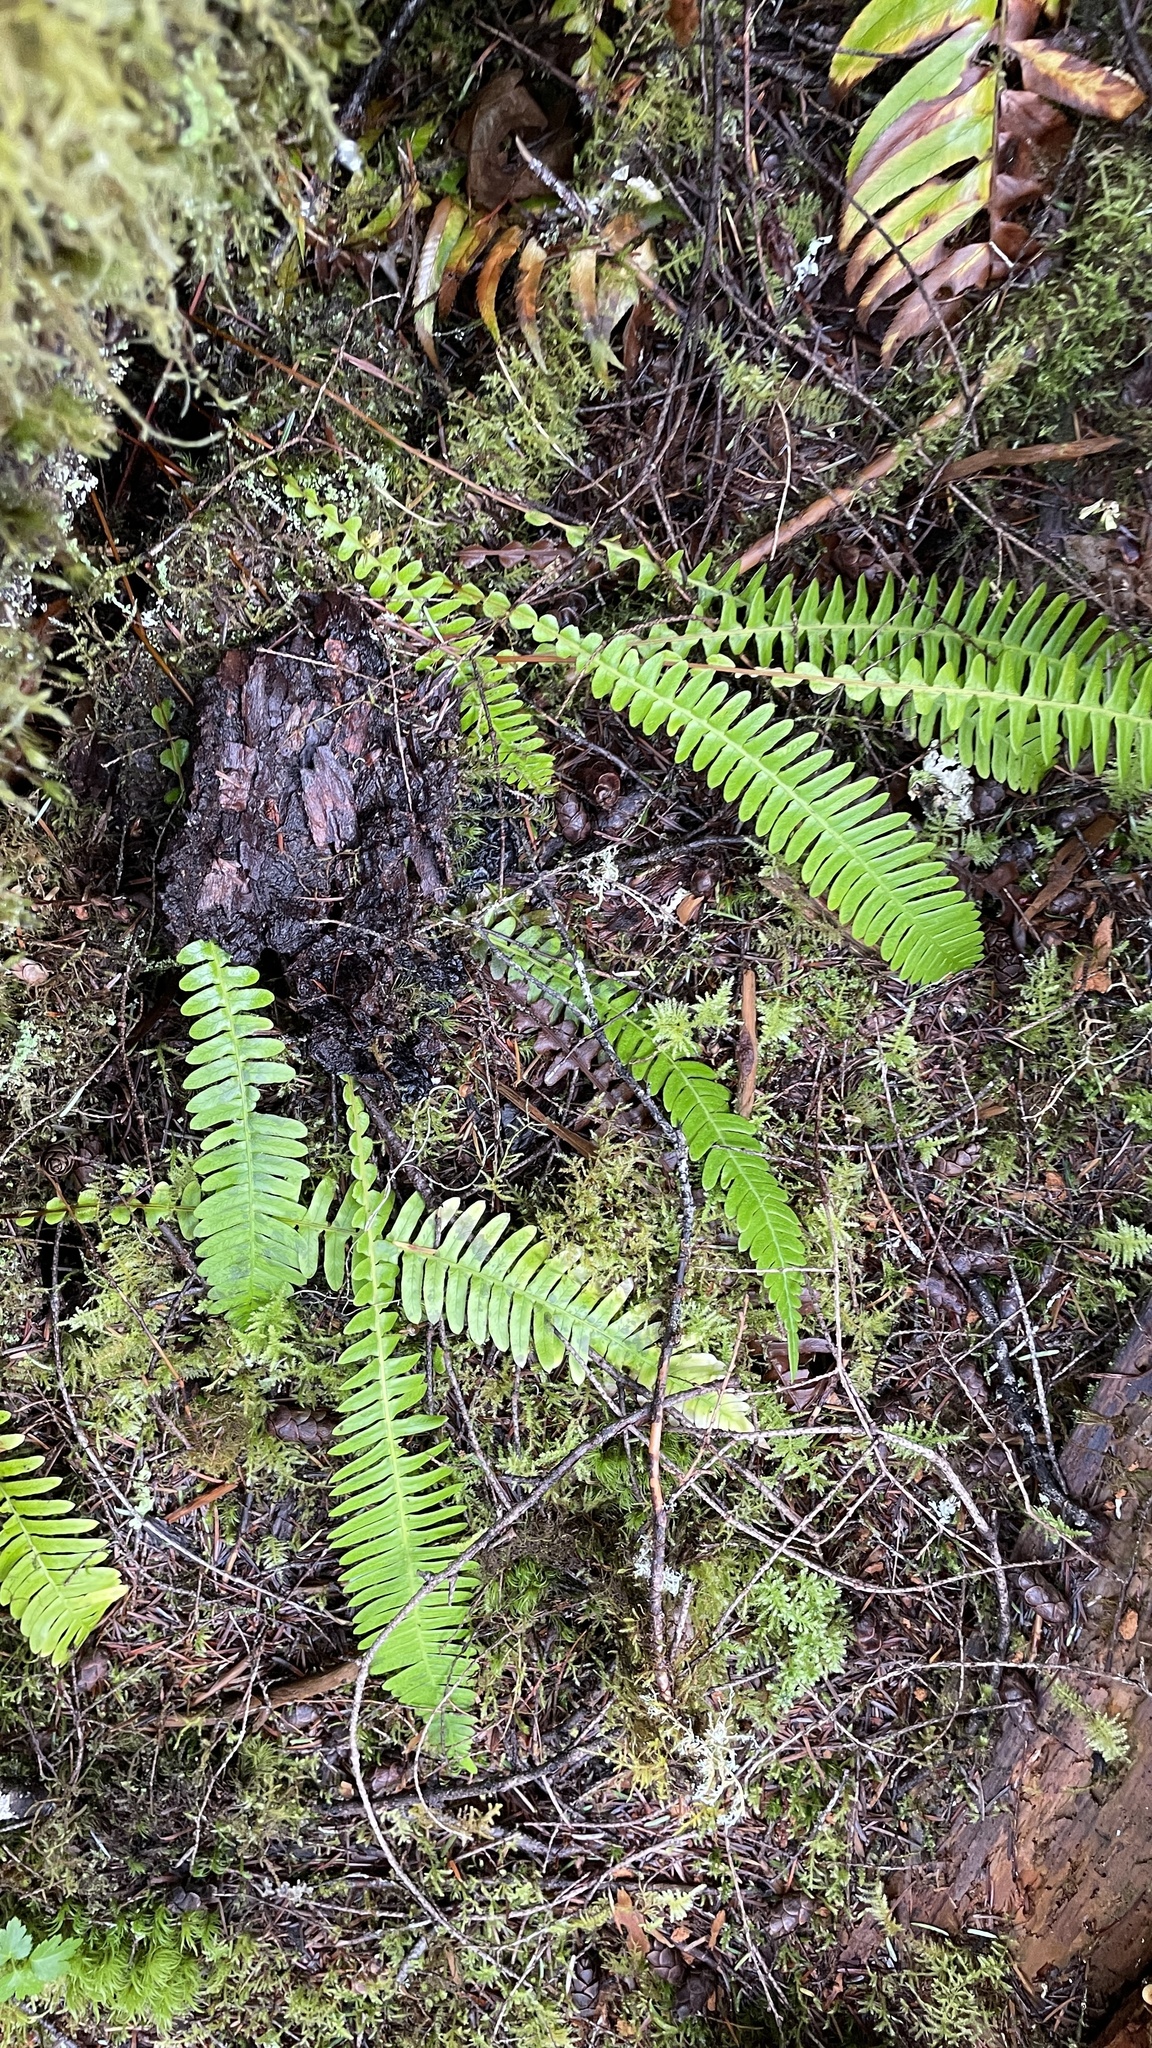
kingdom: Plantae
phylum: Tracheophyta
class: Polypodiopsida
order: Polypodiales
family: Blechnaceae
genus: Struthiopteris
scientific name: Struthiopteris spicant
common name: Deer fern
